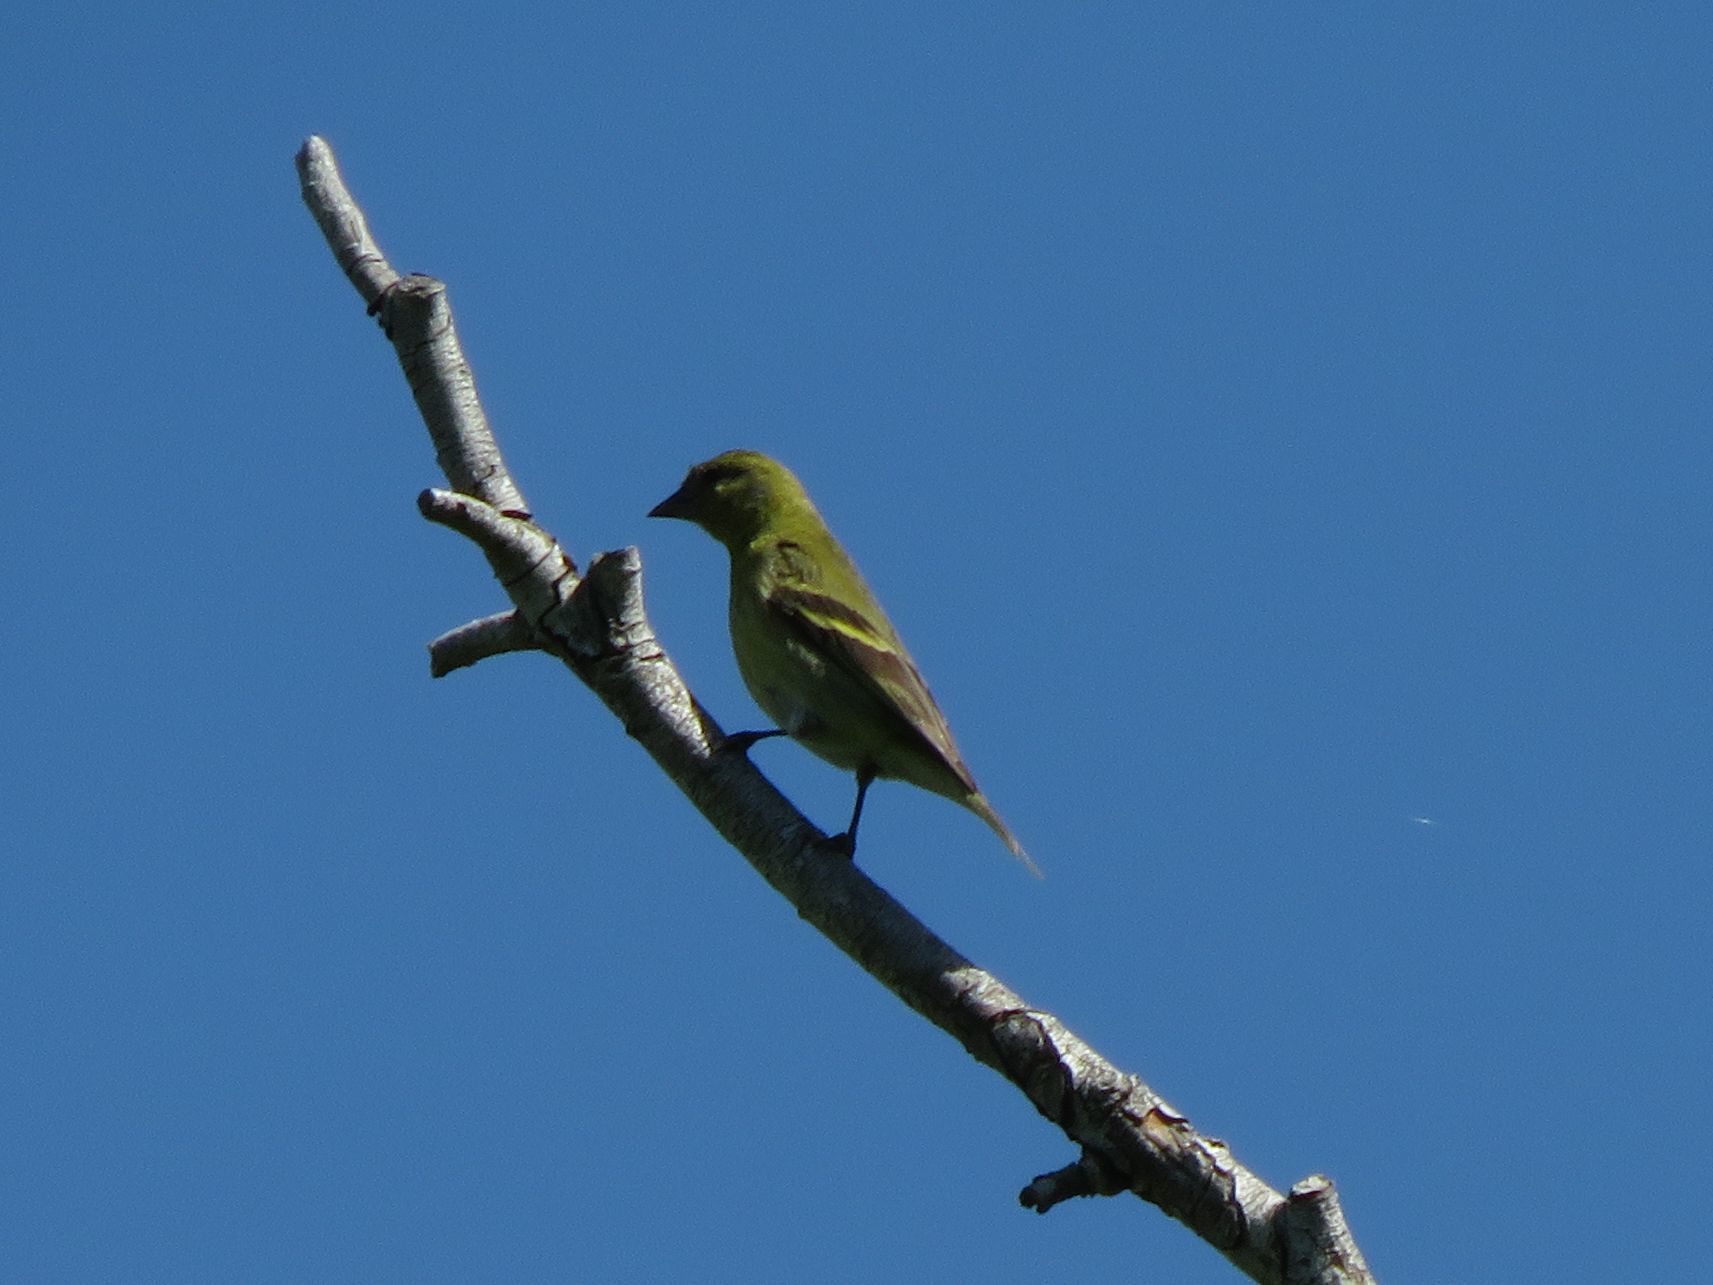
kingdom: Animalia
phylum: Chordata
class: Aves
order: Passeriformes
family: Fringillidae
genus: Spinus
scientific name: Spinus magellanicus
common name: Hooded siskin
